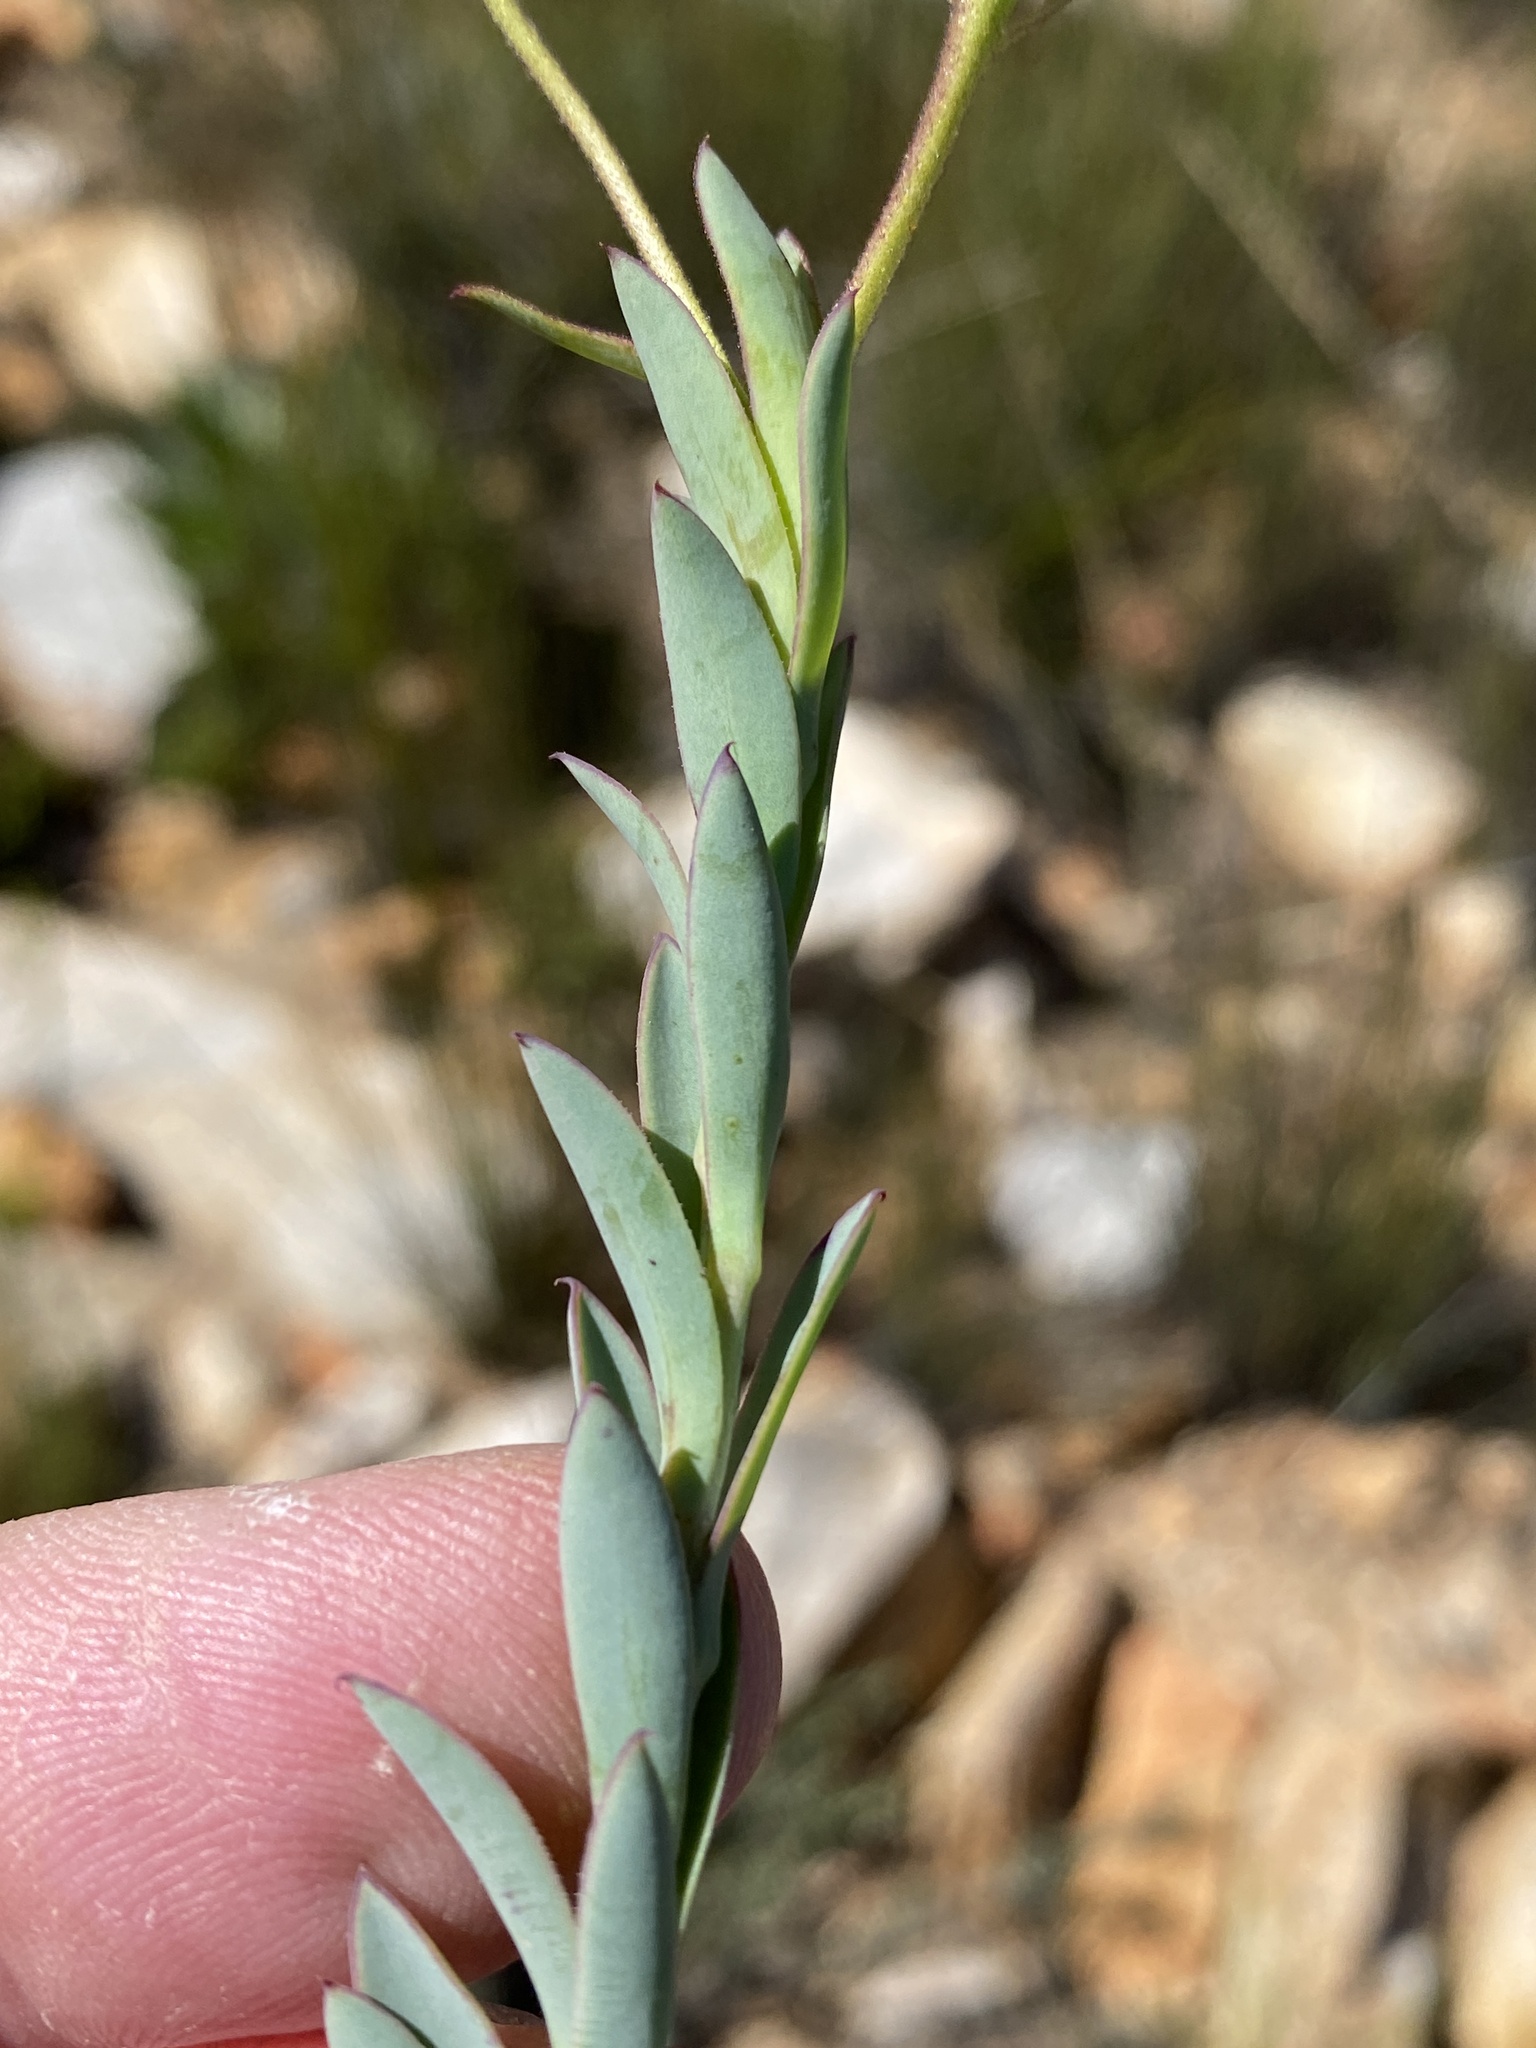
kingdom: Plantae
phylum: Tracheophyta
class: Magnoliopsida
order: Asterales
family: Asteraceae
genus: Osteospermum
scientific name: Osteospermum polygaloides
